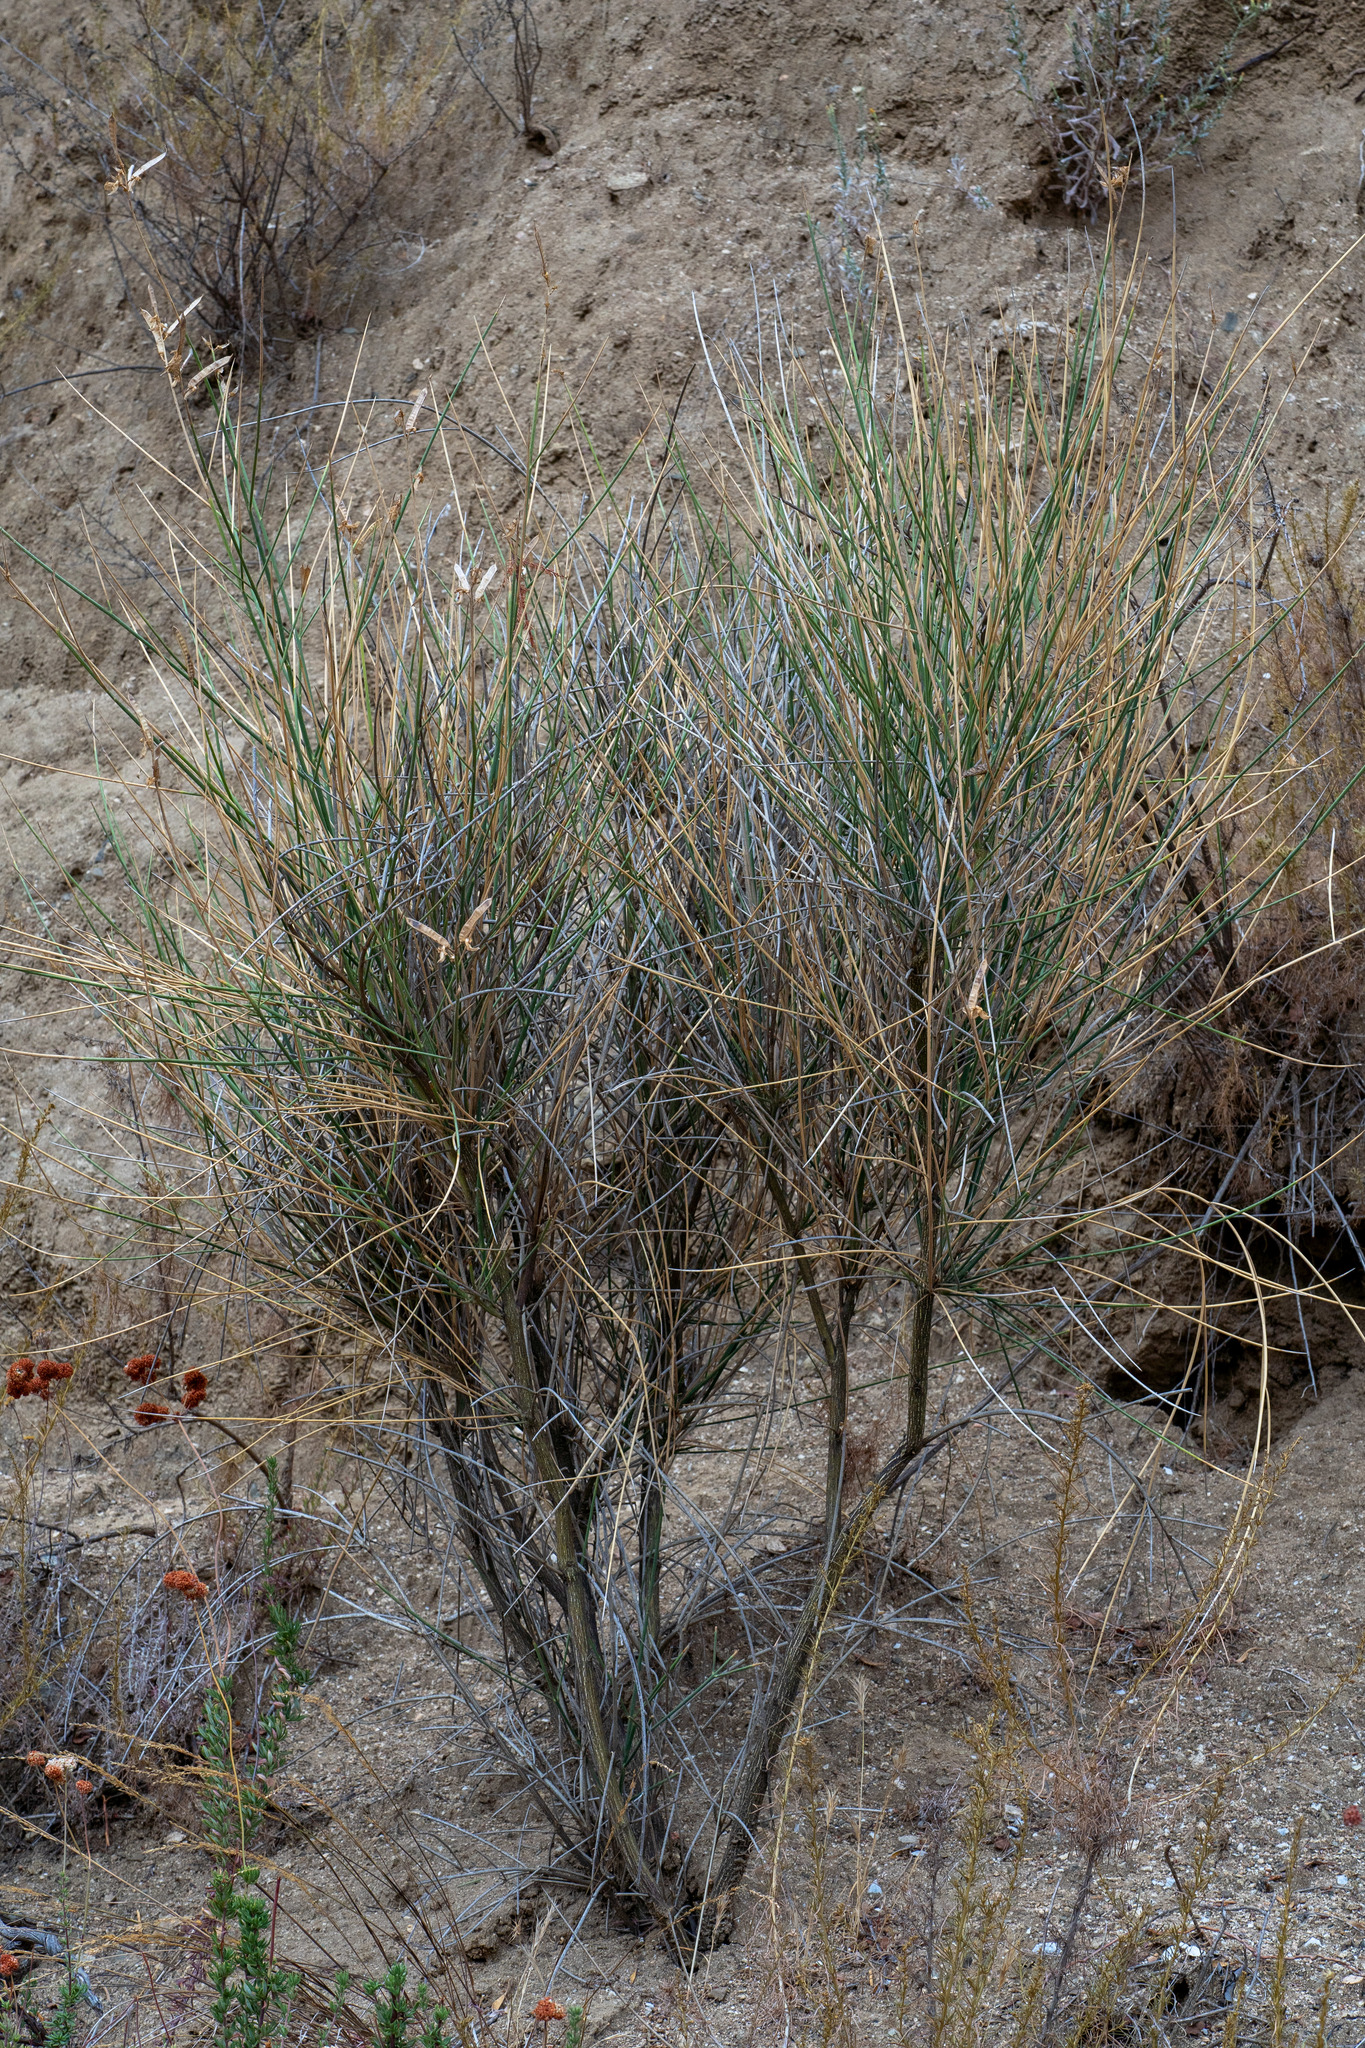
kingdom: Plantae
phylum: Tracheophyta
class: Magnoliopsida
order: Fabales
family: Fabaceae
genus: Spartium
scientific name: Spartium junceum
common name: Spanish broom
